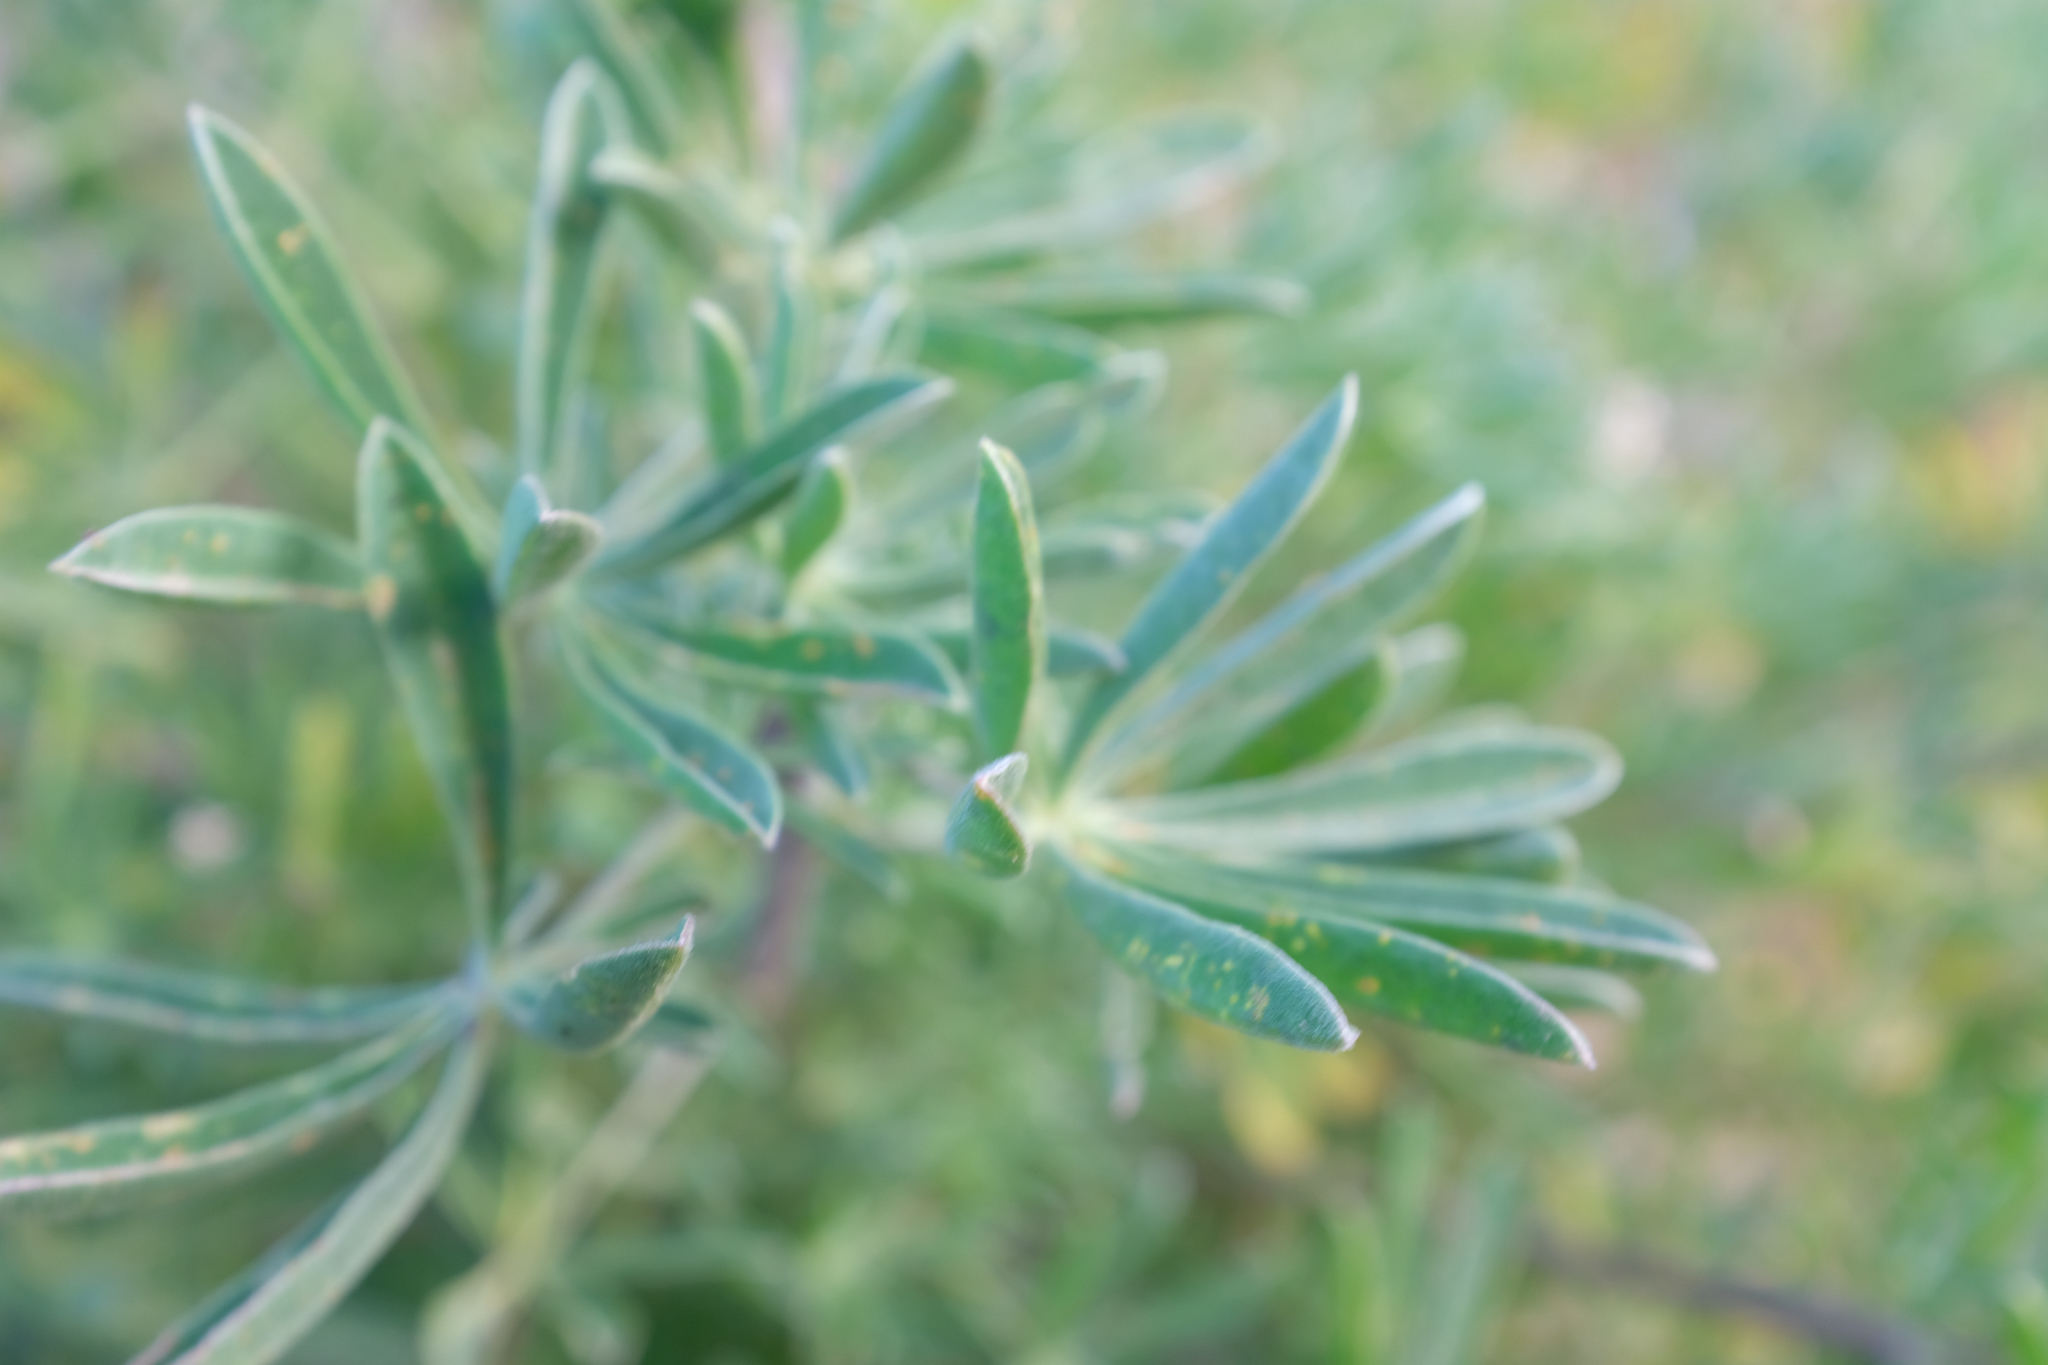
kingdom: Plantae
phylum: Tracheophyta
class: Magnoliopsida
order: Fabales
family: Fabaceae
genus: Lupinus
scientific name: Lupinus arboreus
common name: Yellow bush lupine
